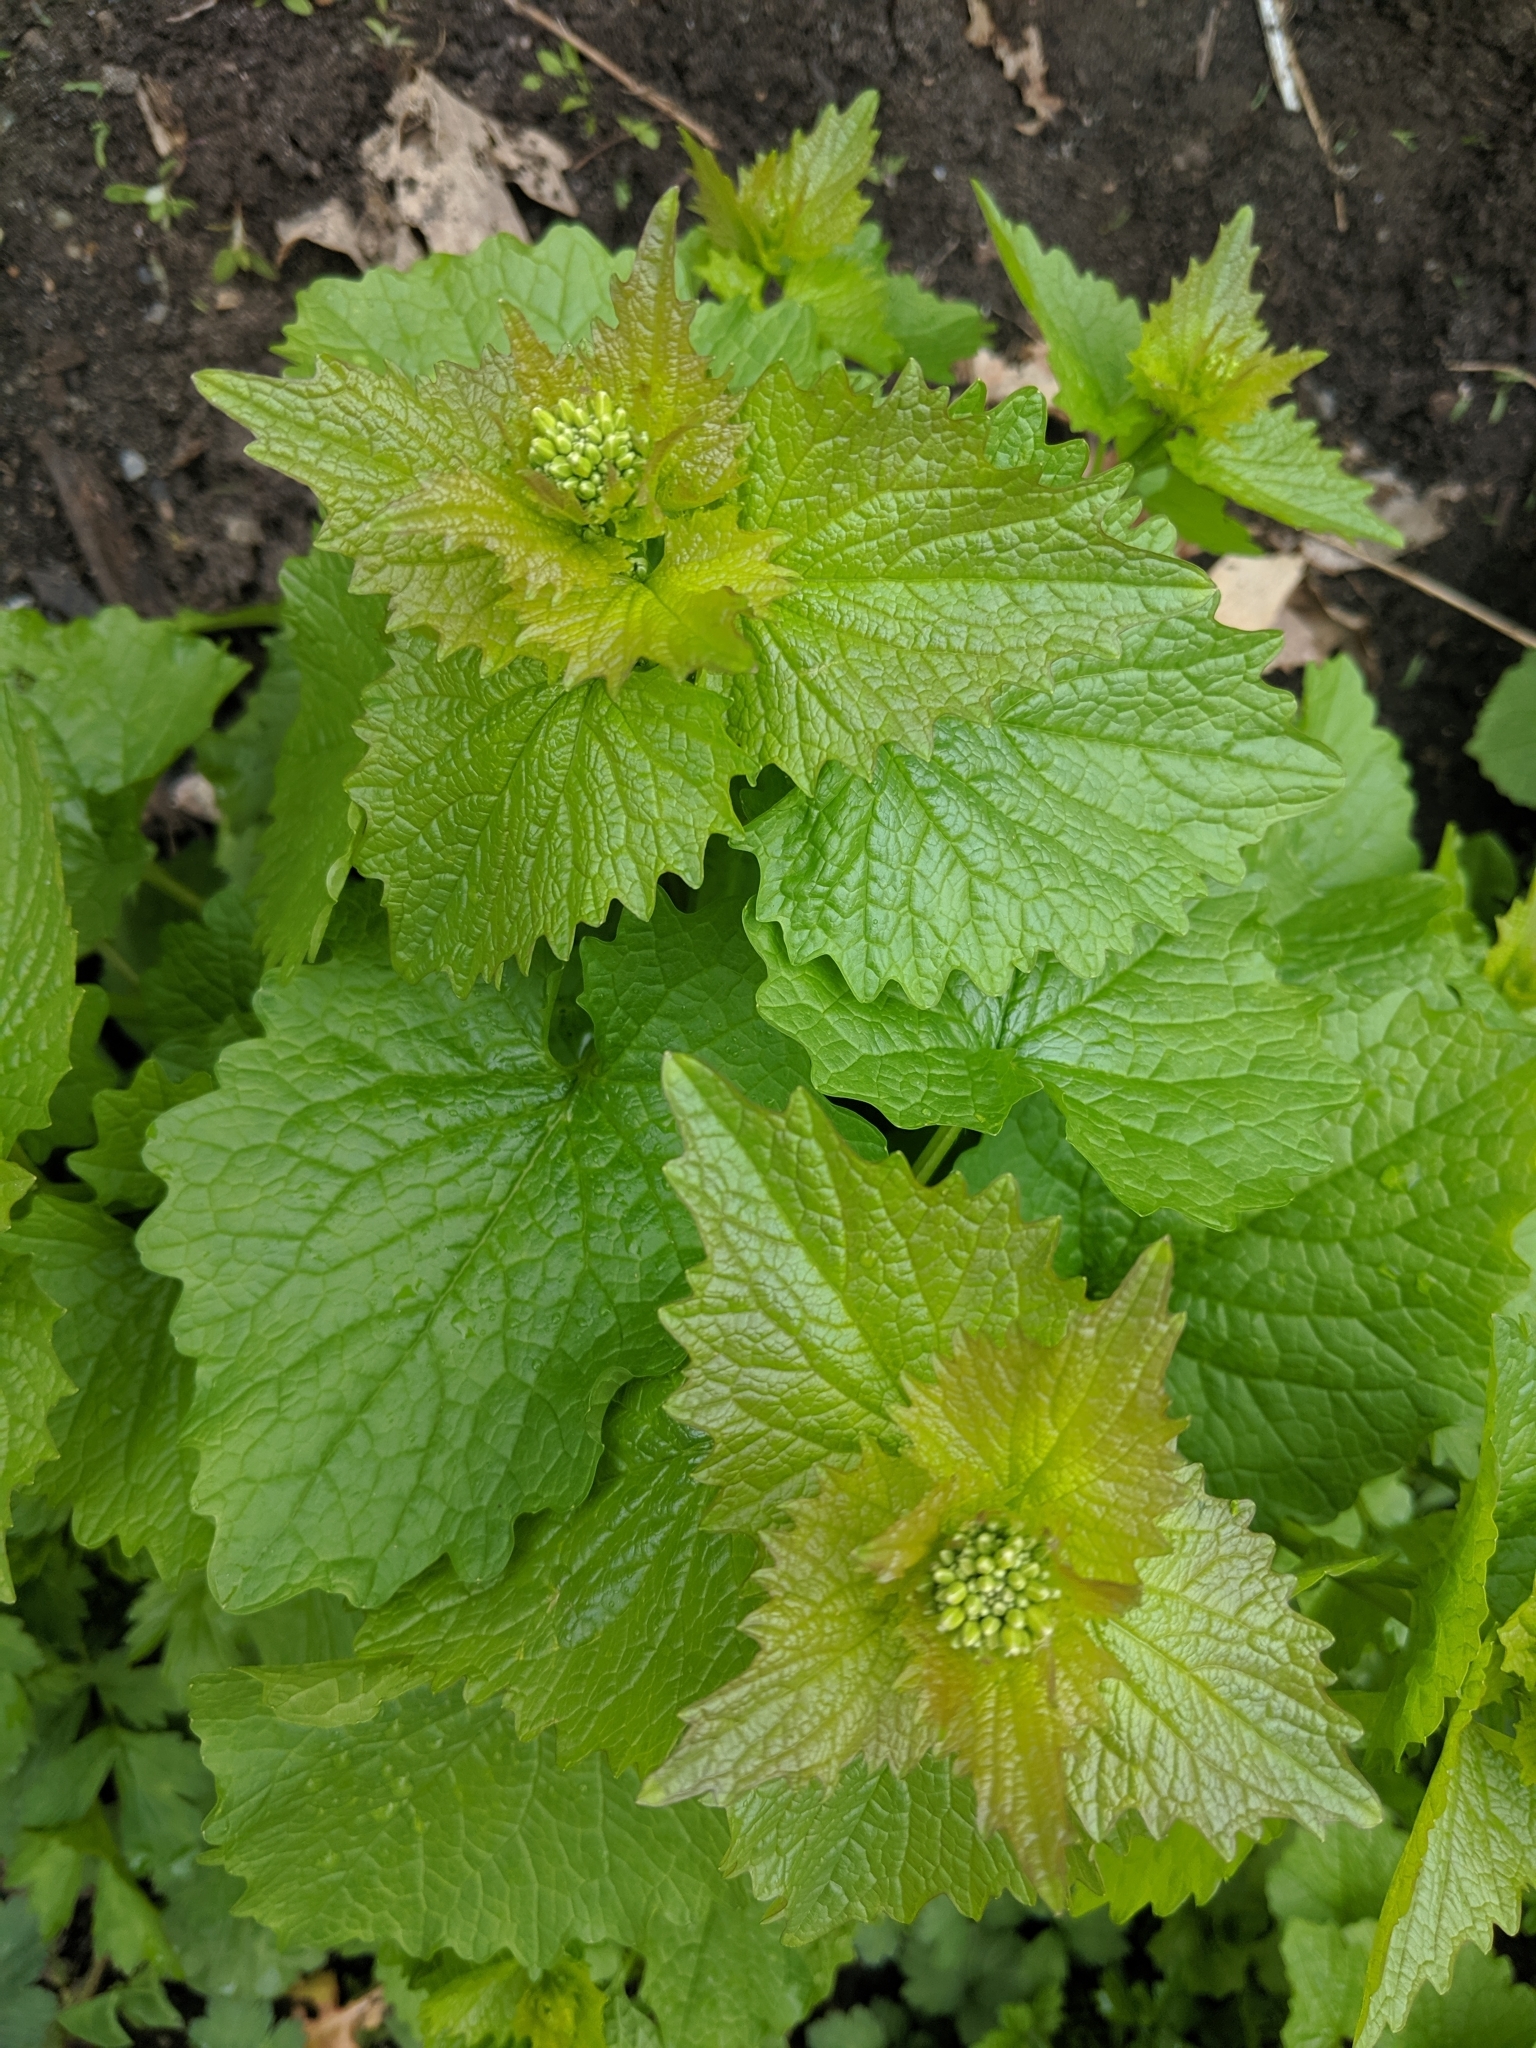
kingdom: Plantae
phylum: Tracheophyta
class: Magnoliopsida
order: Brassicales
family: Brassicaceae
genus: Alliaria
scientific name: Alliaria petiolata
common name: Garlic mustard
